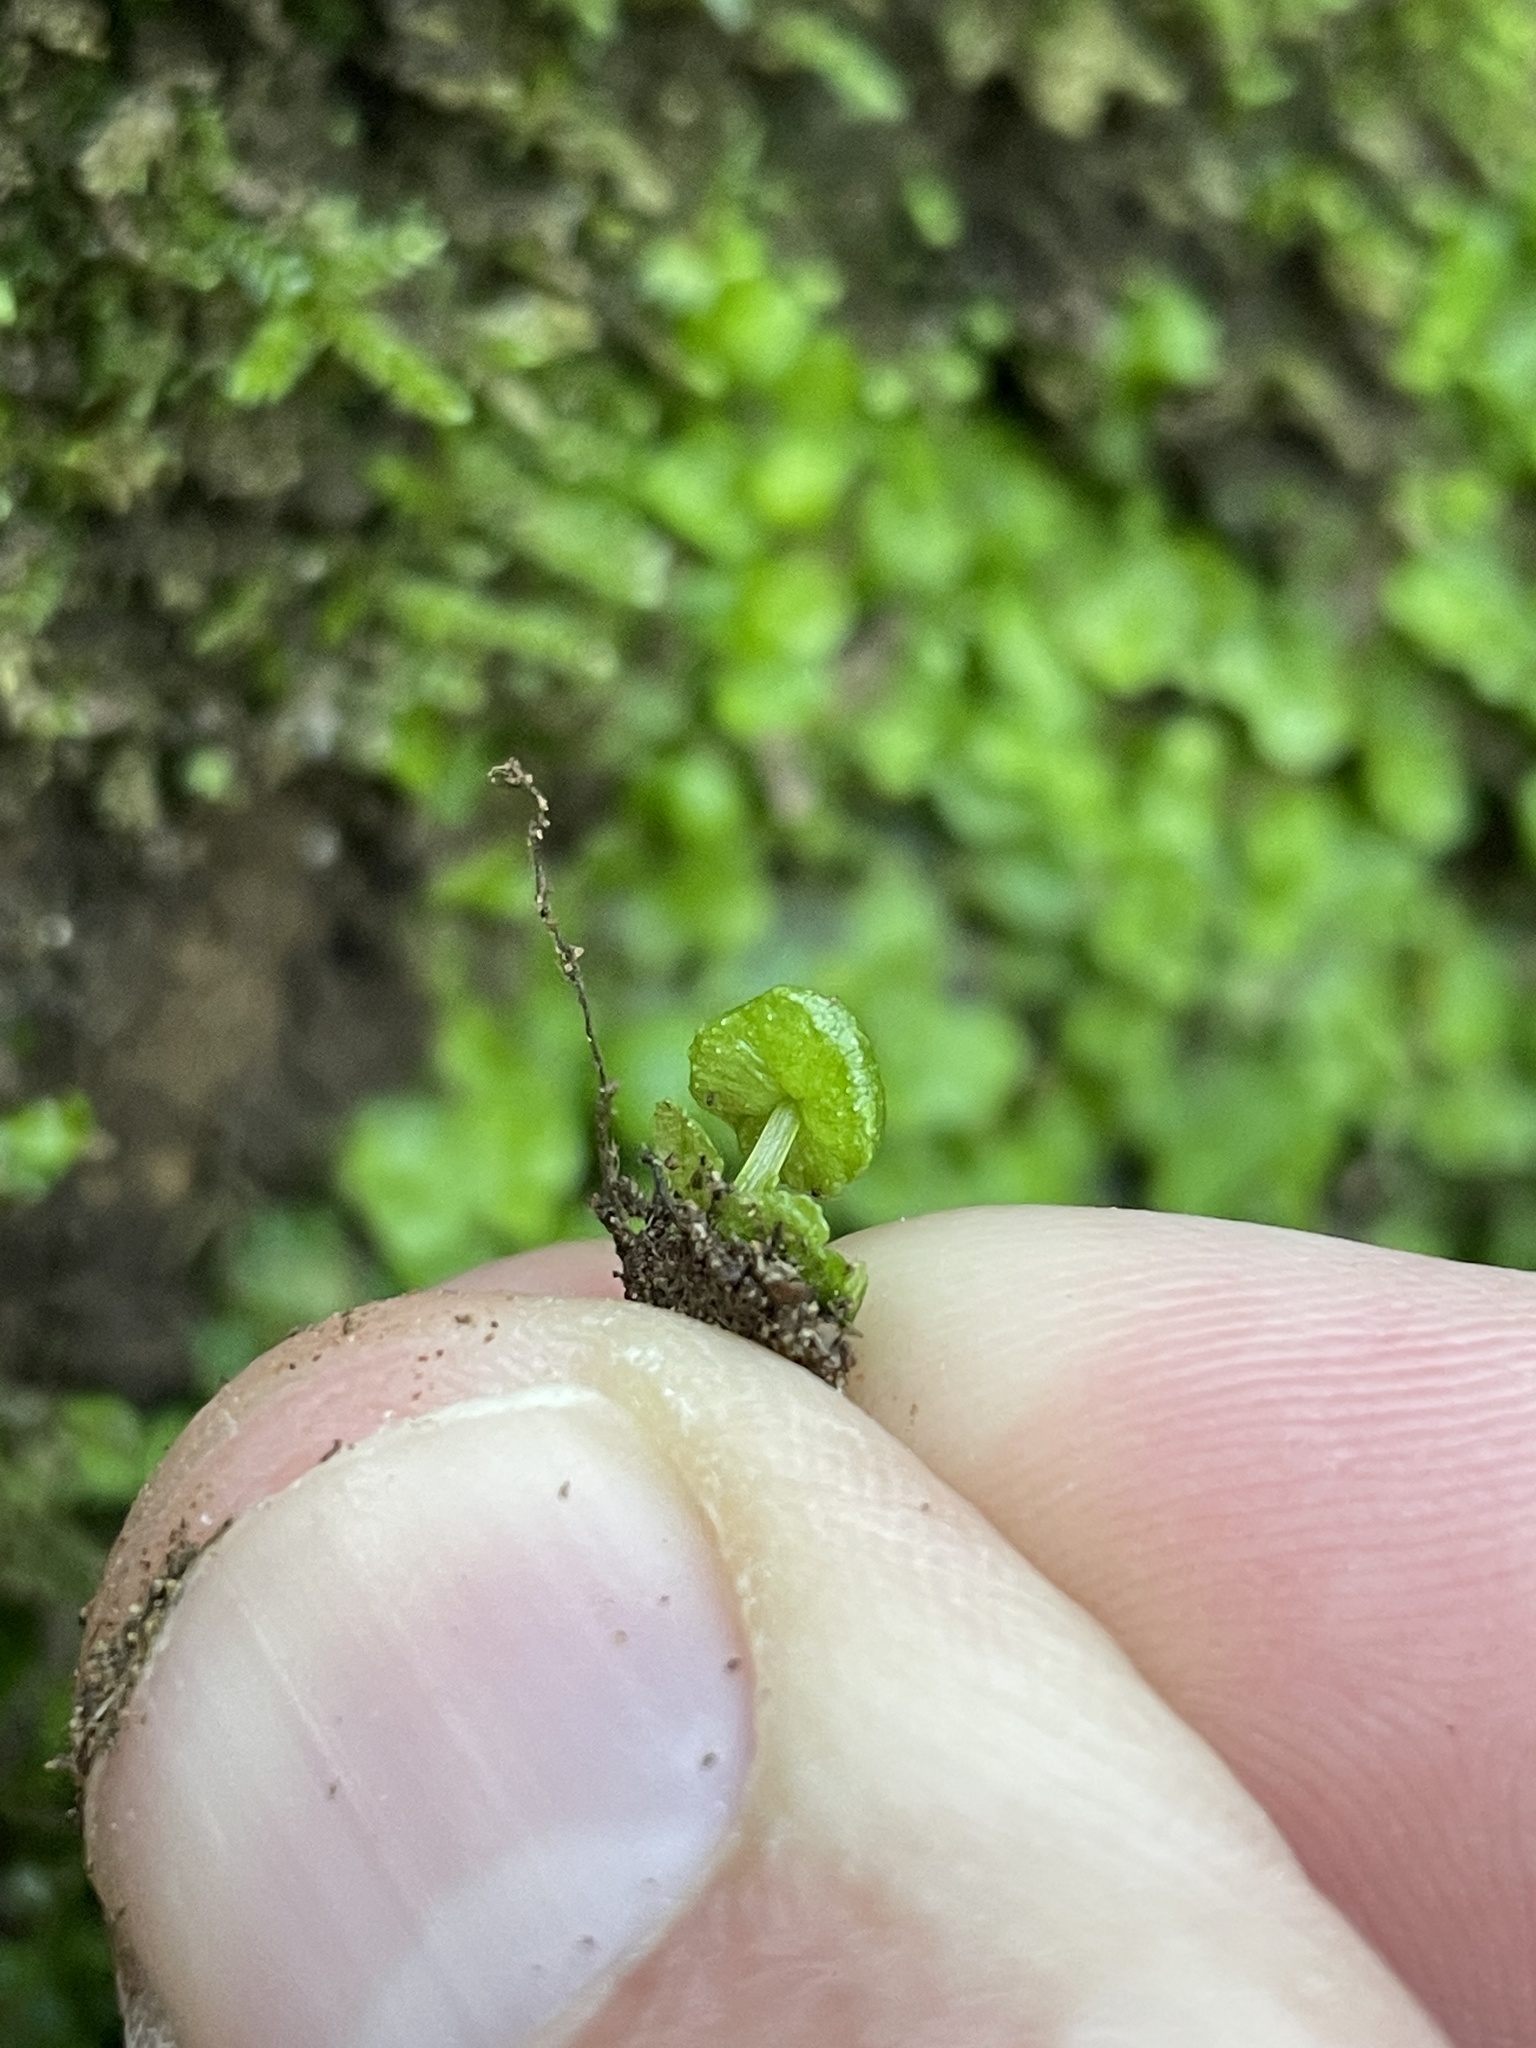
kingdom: Plantae
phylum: Marchantiophyta
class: Marchantiopsida
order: Marchantiales
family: Aytoniaceae
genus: Cryptomitrium
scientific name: Cryptomitrium tenerum
